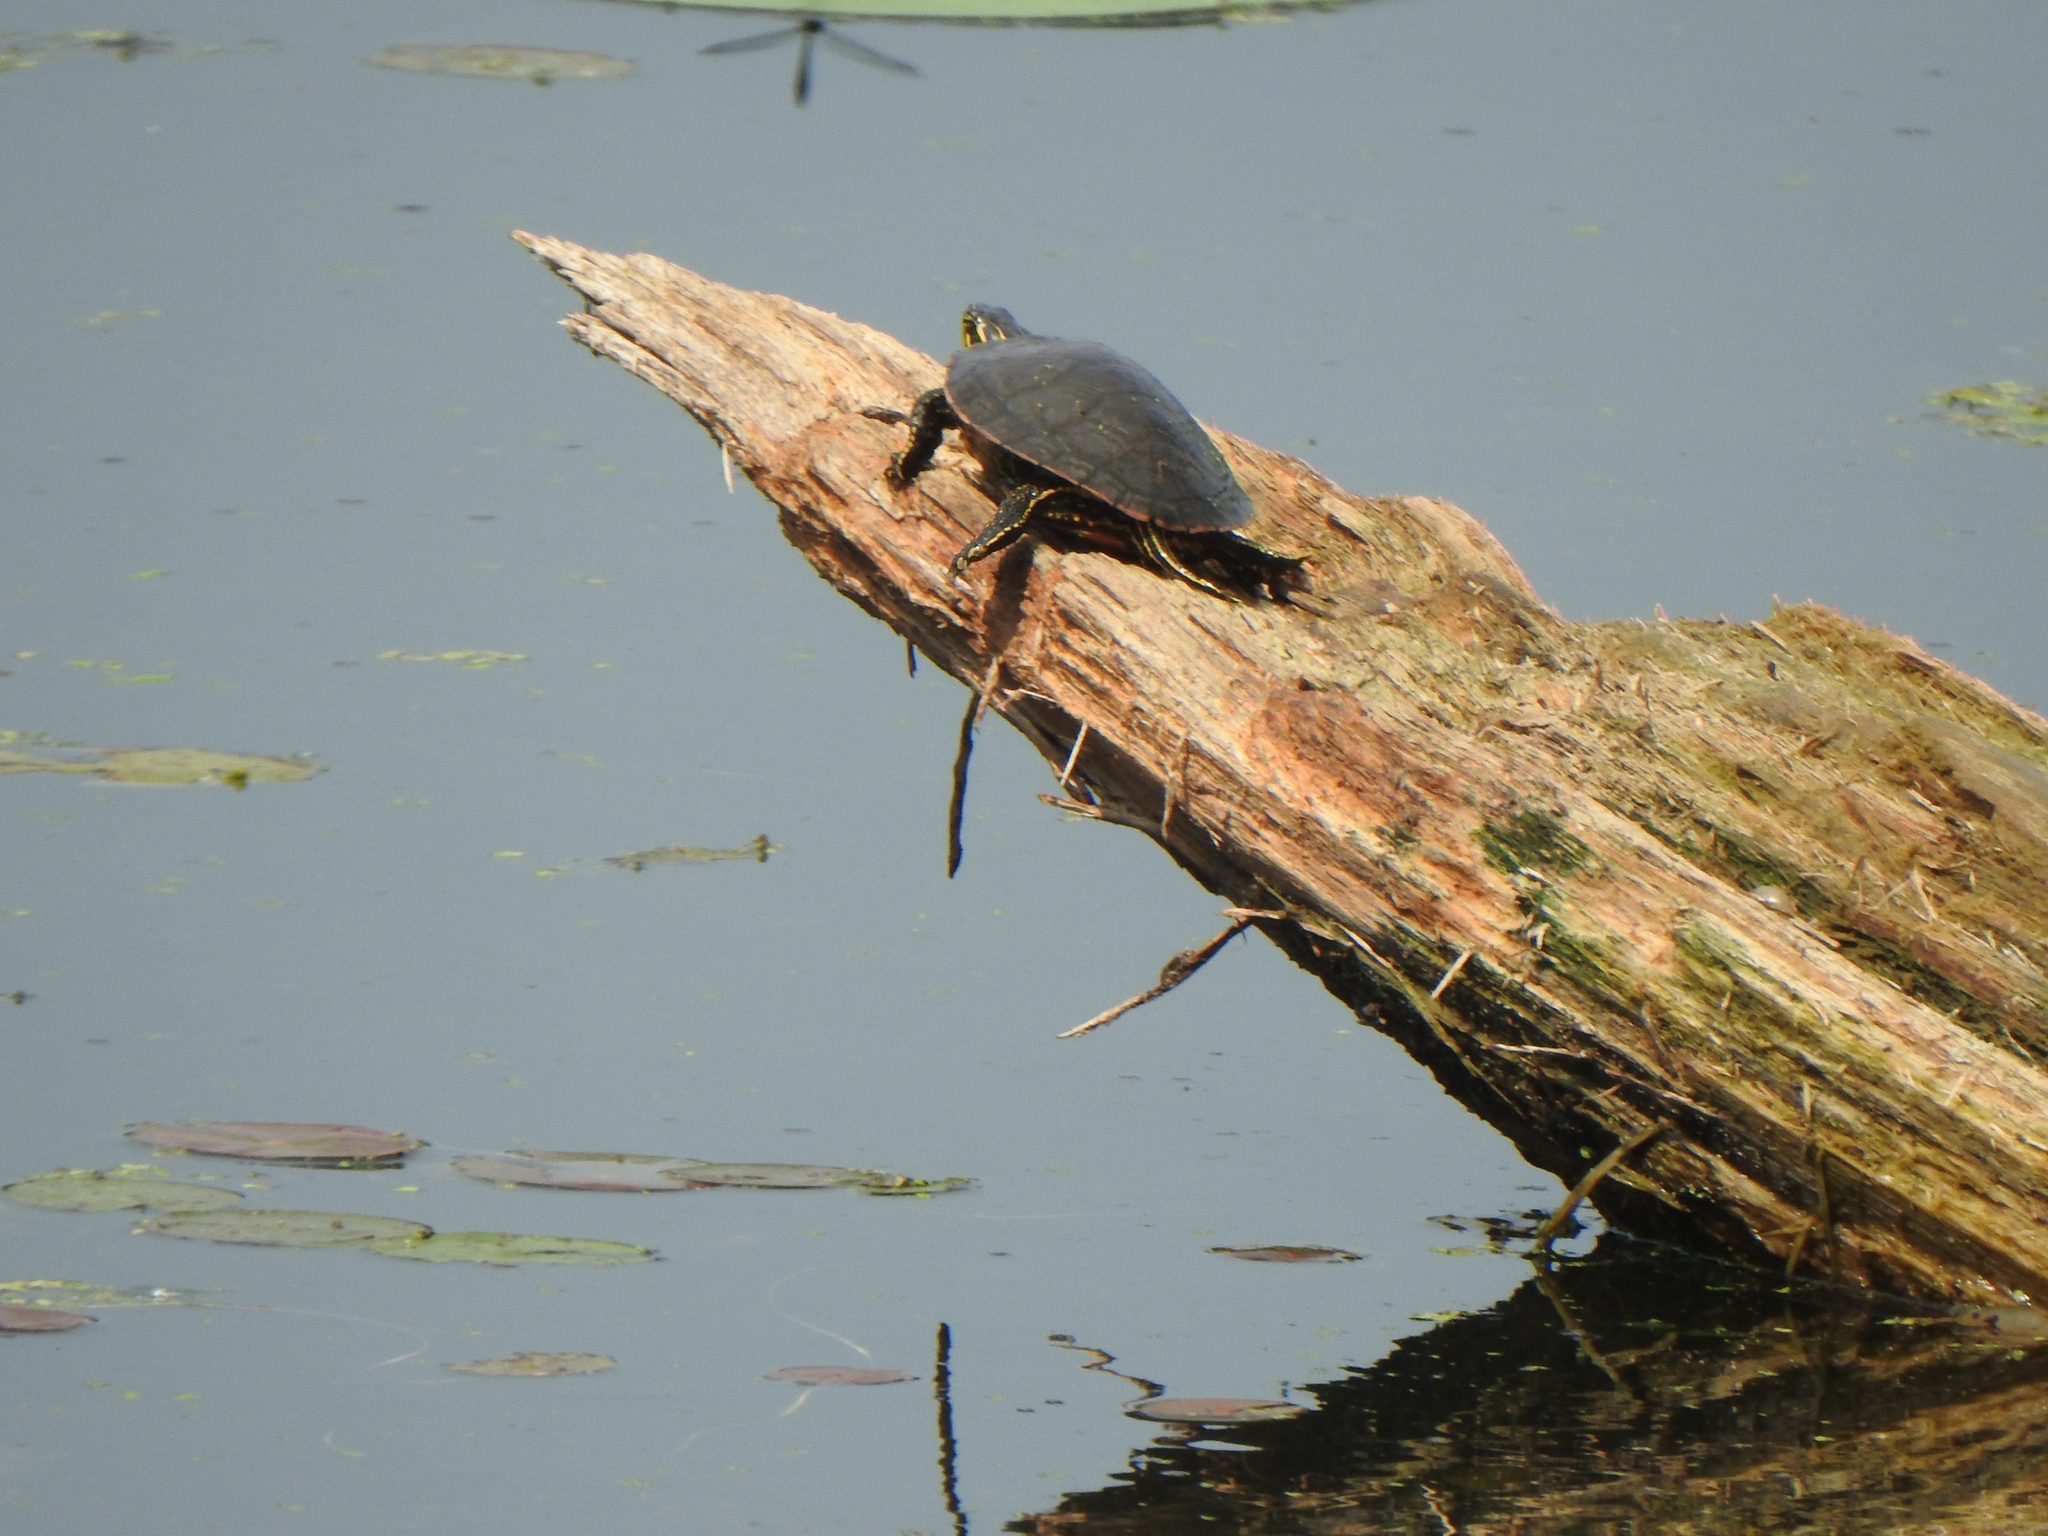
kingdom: Animalia
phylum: Chordata
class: Testudines
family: Emydidae
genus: Chrysemys
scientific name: Chrysemys picta
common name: Painted turtle
